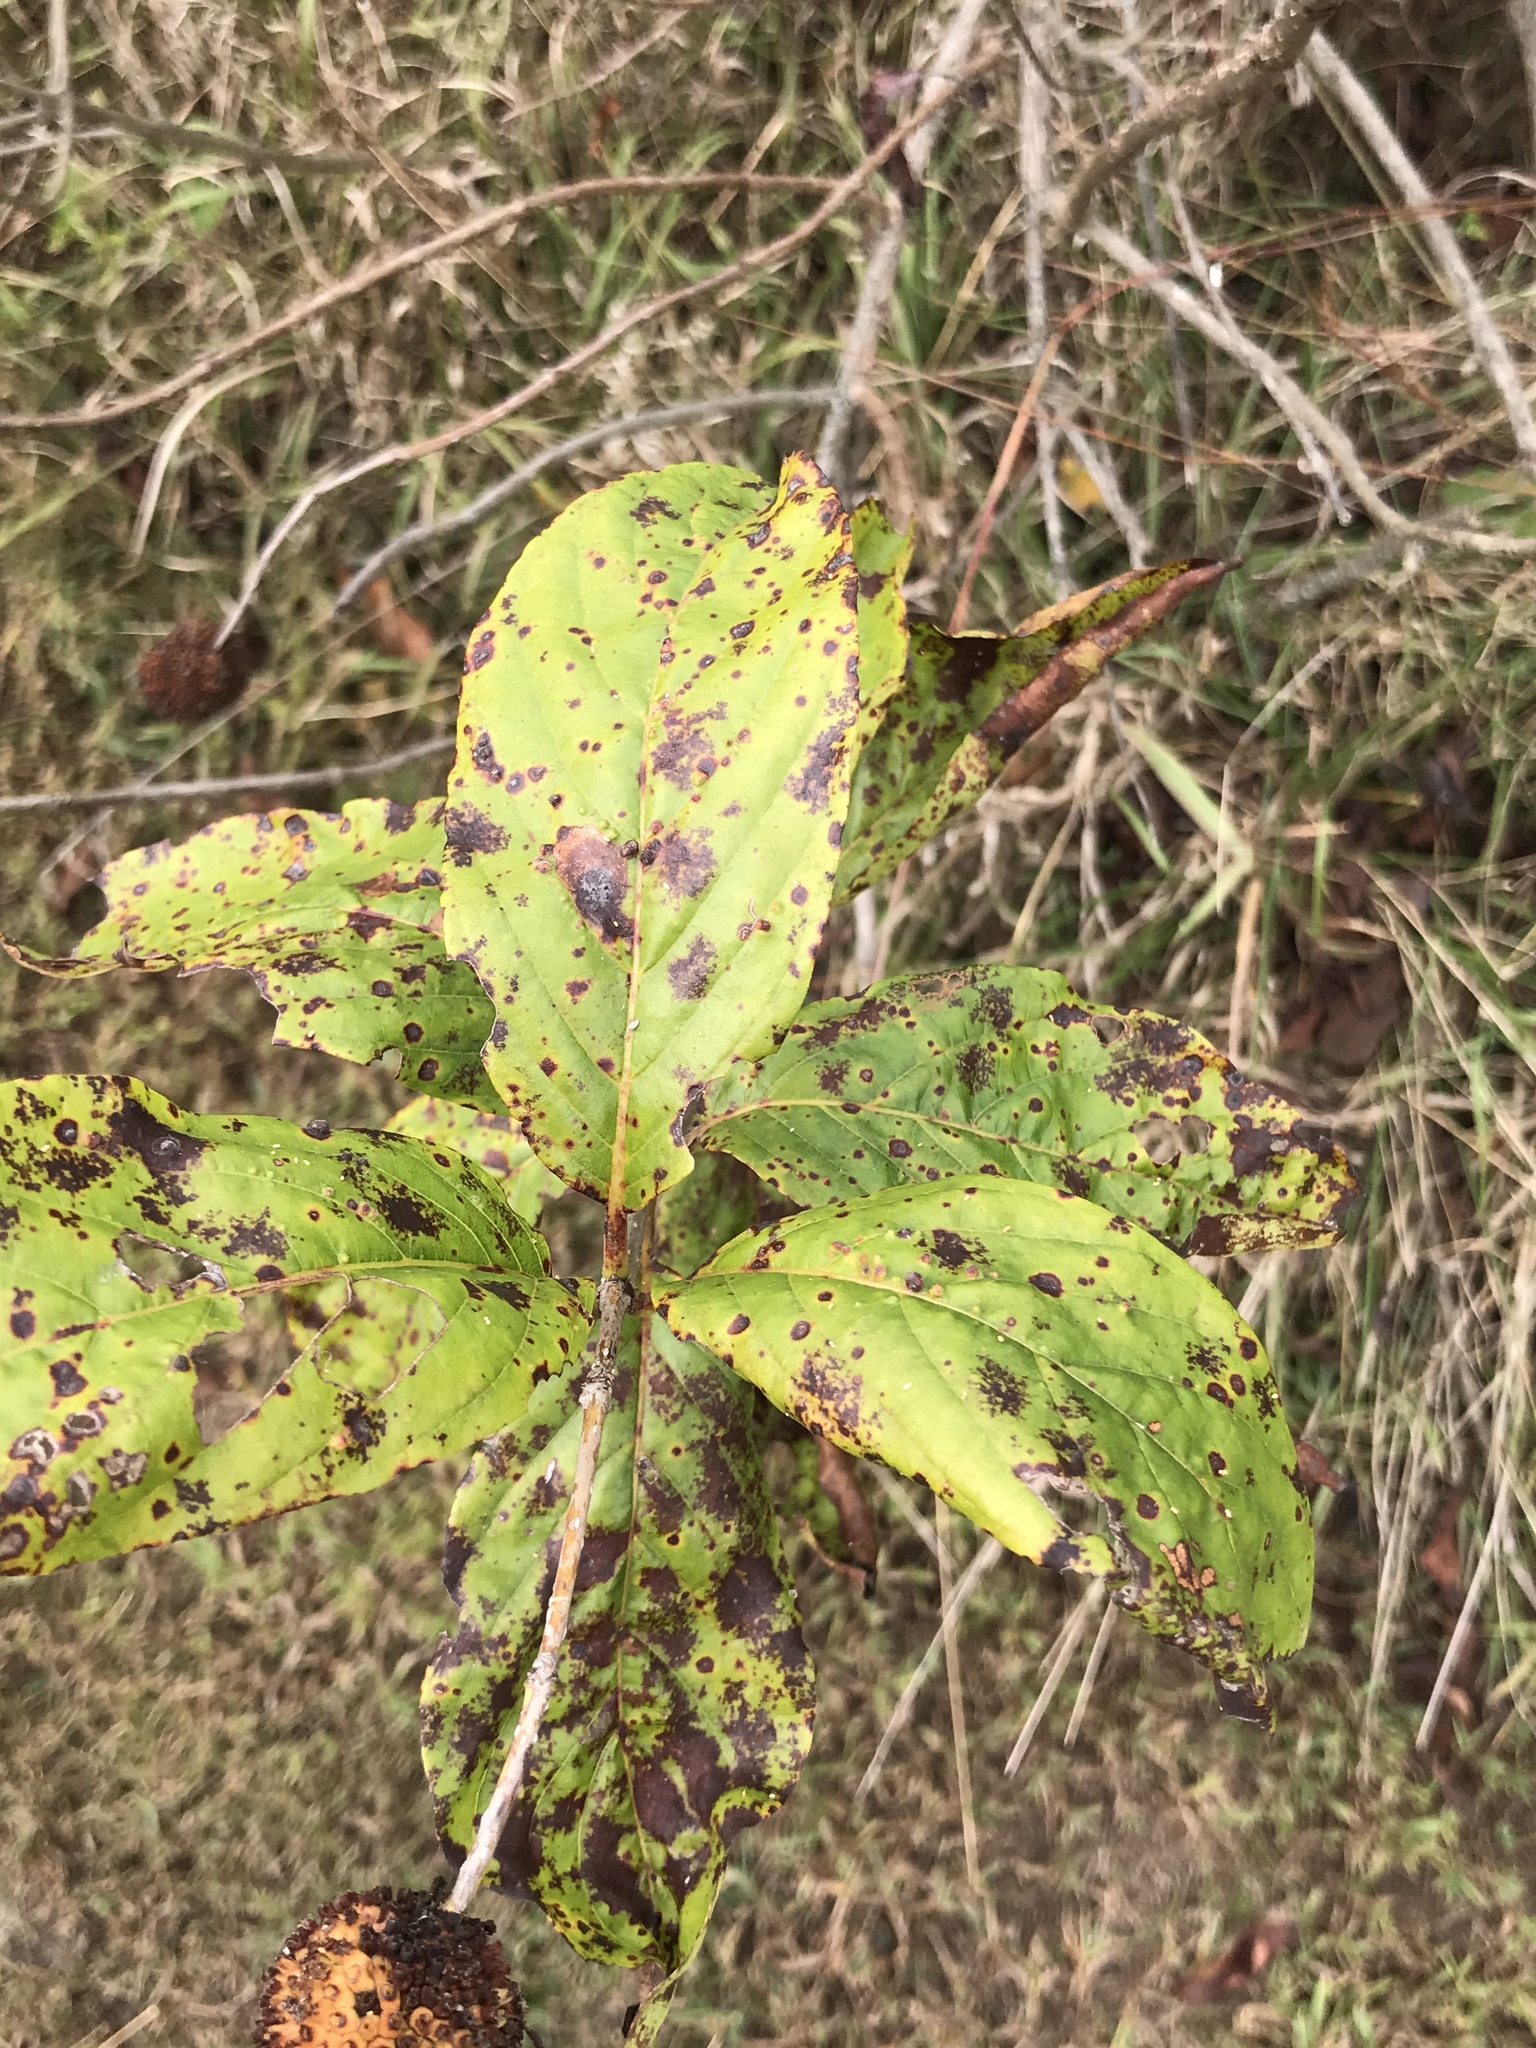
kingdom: Plantae
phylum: Tracheophyta
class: Magnoliopsida
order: Gentianales
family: Rubiaceae
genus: Cephalanthus
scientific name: Cephalanthus occidentalis
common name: Button-willow
